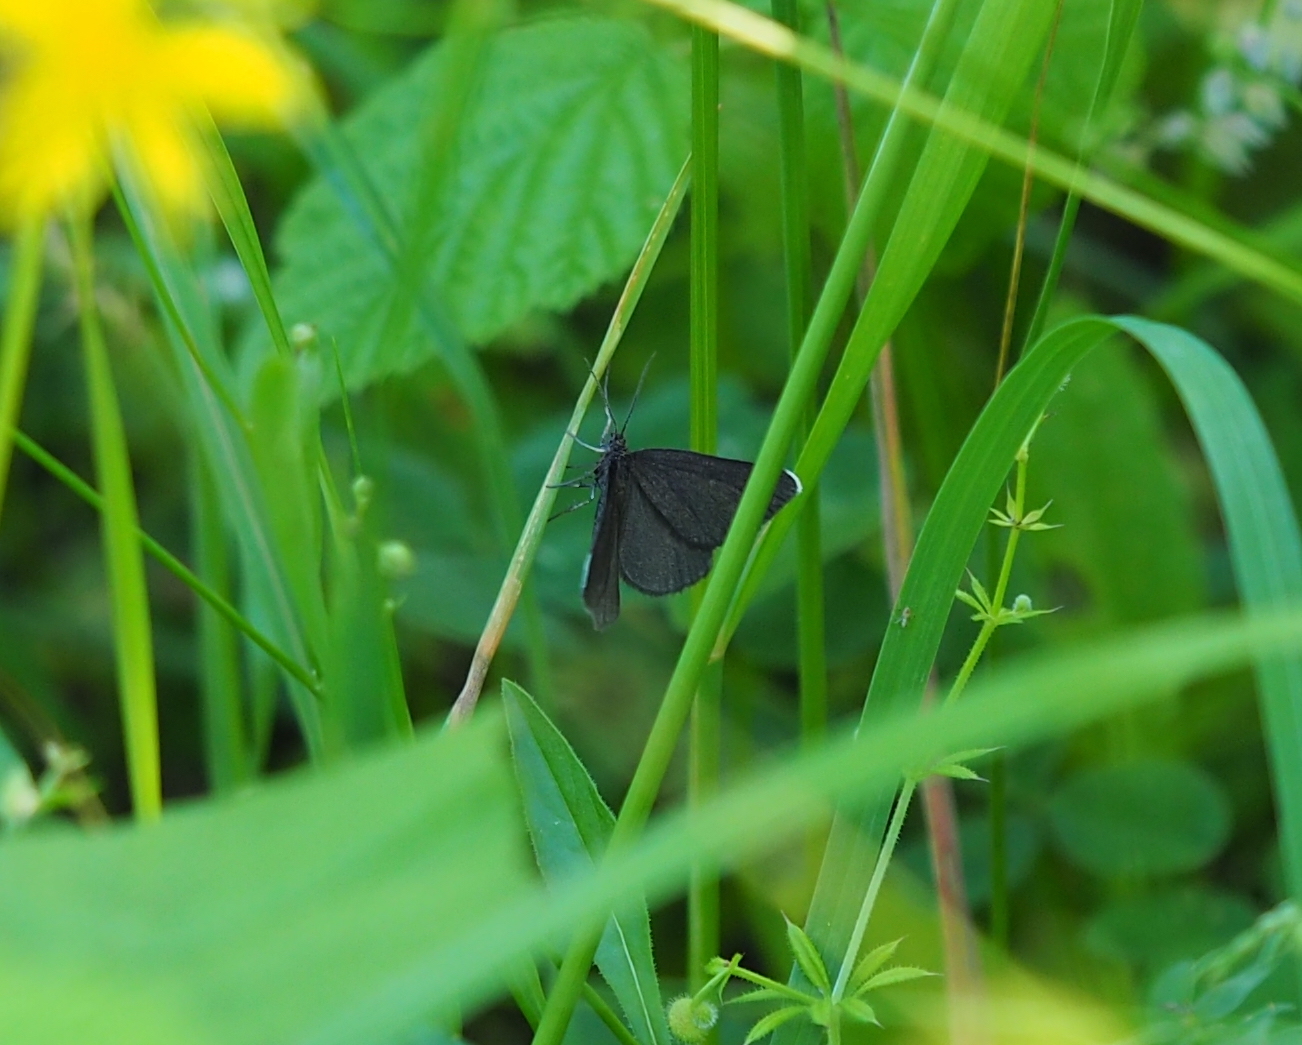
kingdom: Animalia
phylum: Arthropoda
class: Insecta
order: Lepidoptera
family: Geometridae
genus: Odezia
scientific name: Odezia atrata
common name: Chimney sweeper
